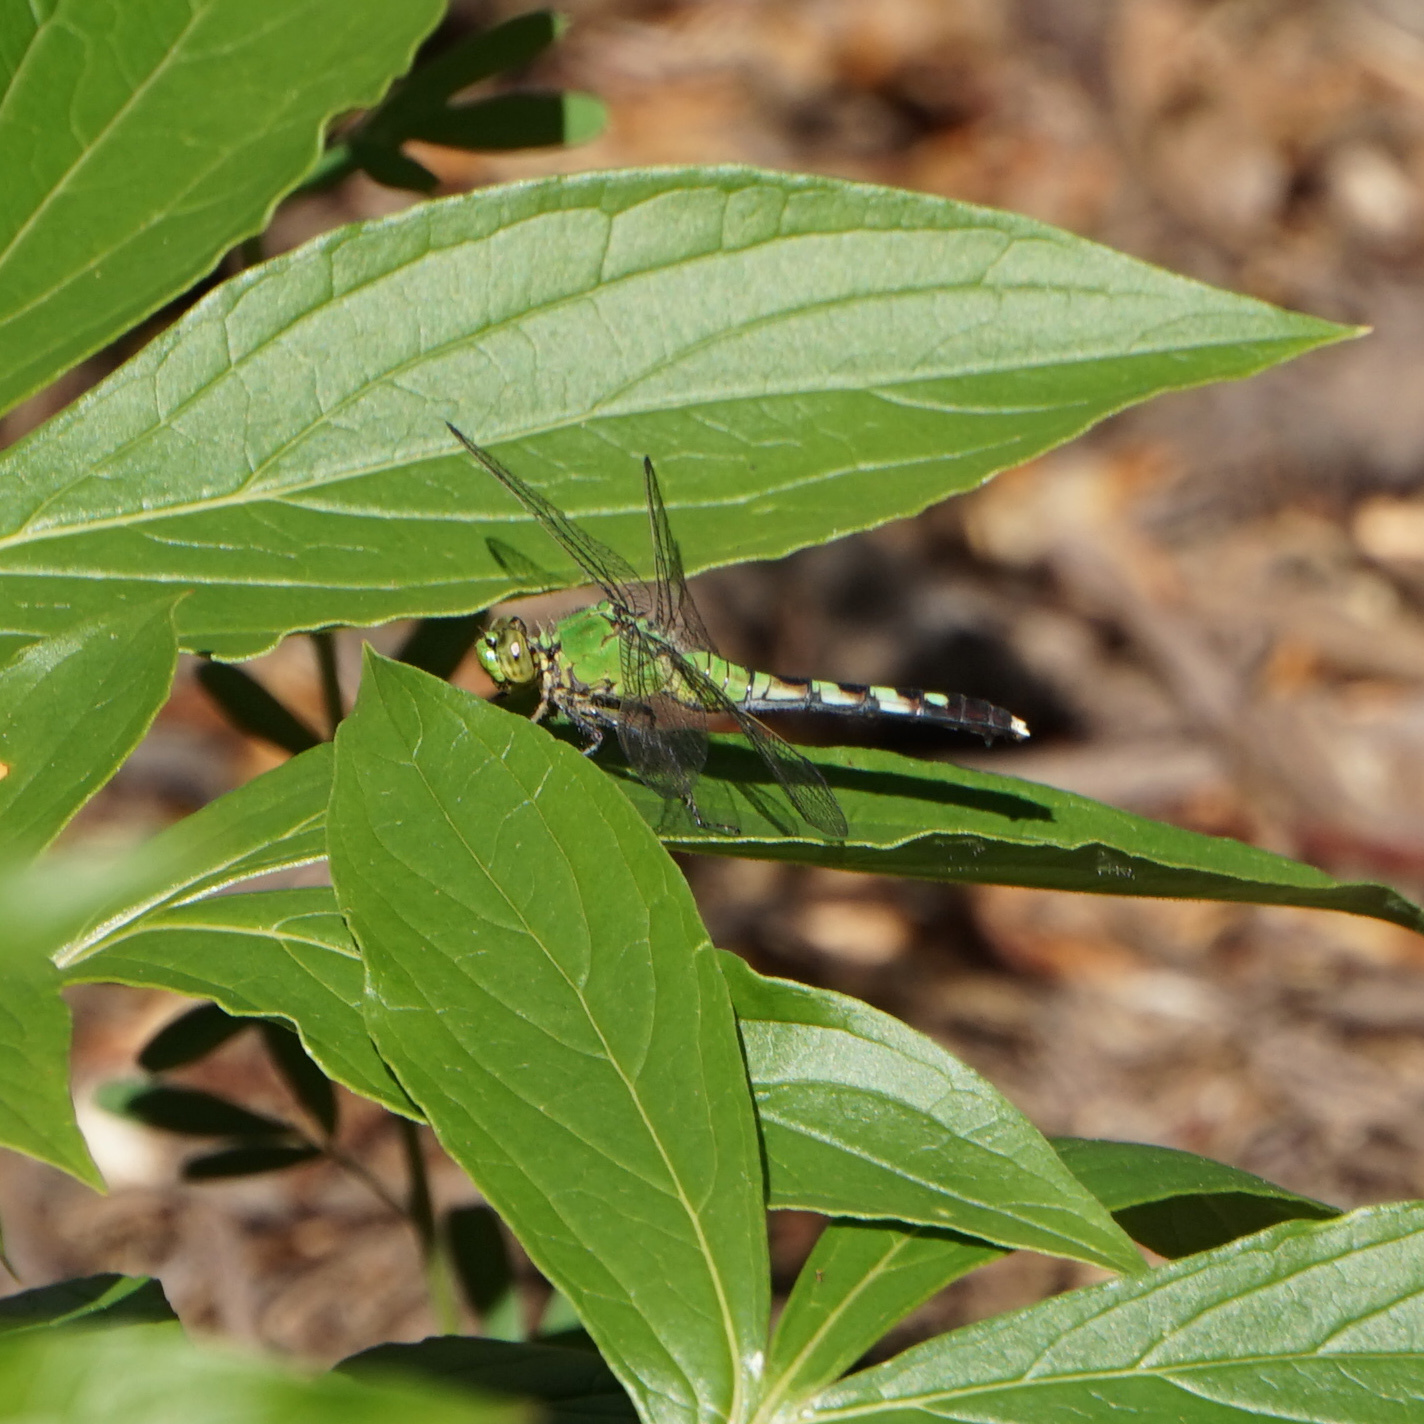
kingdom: Animalia
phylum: Arthropoda
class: Insecta
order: Odonata
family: Libellulidae
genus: Erythemis
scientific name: Erythemis simplicicollis
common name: Eastern pondhawk
